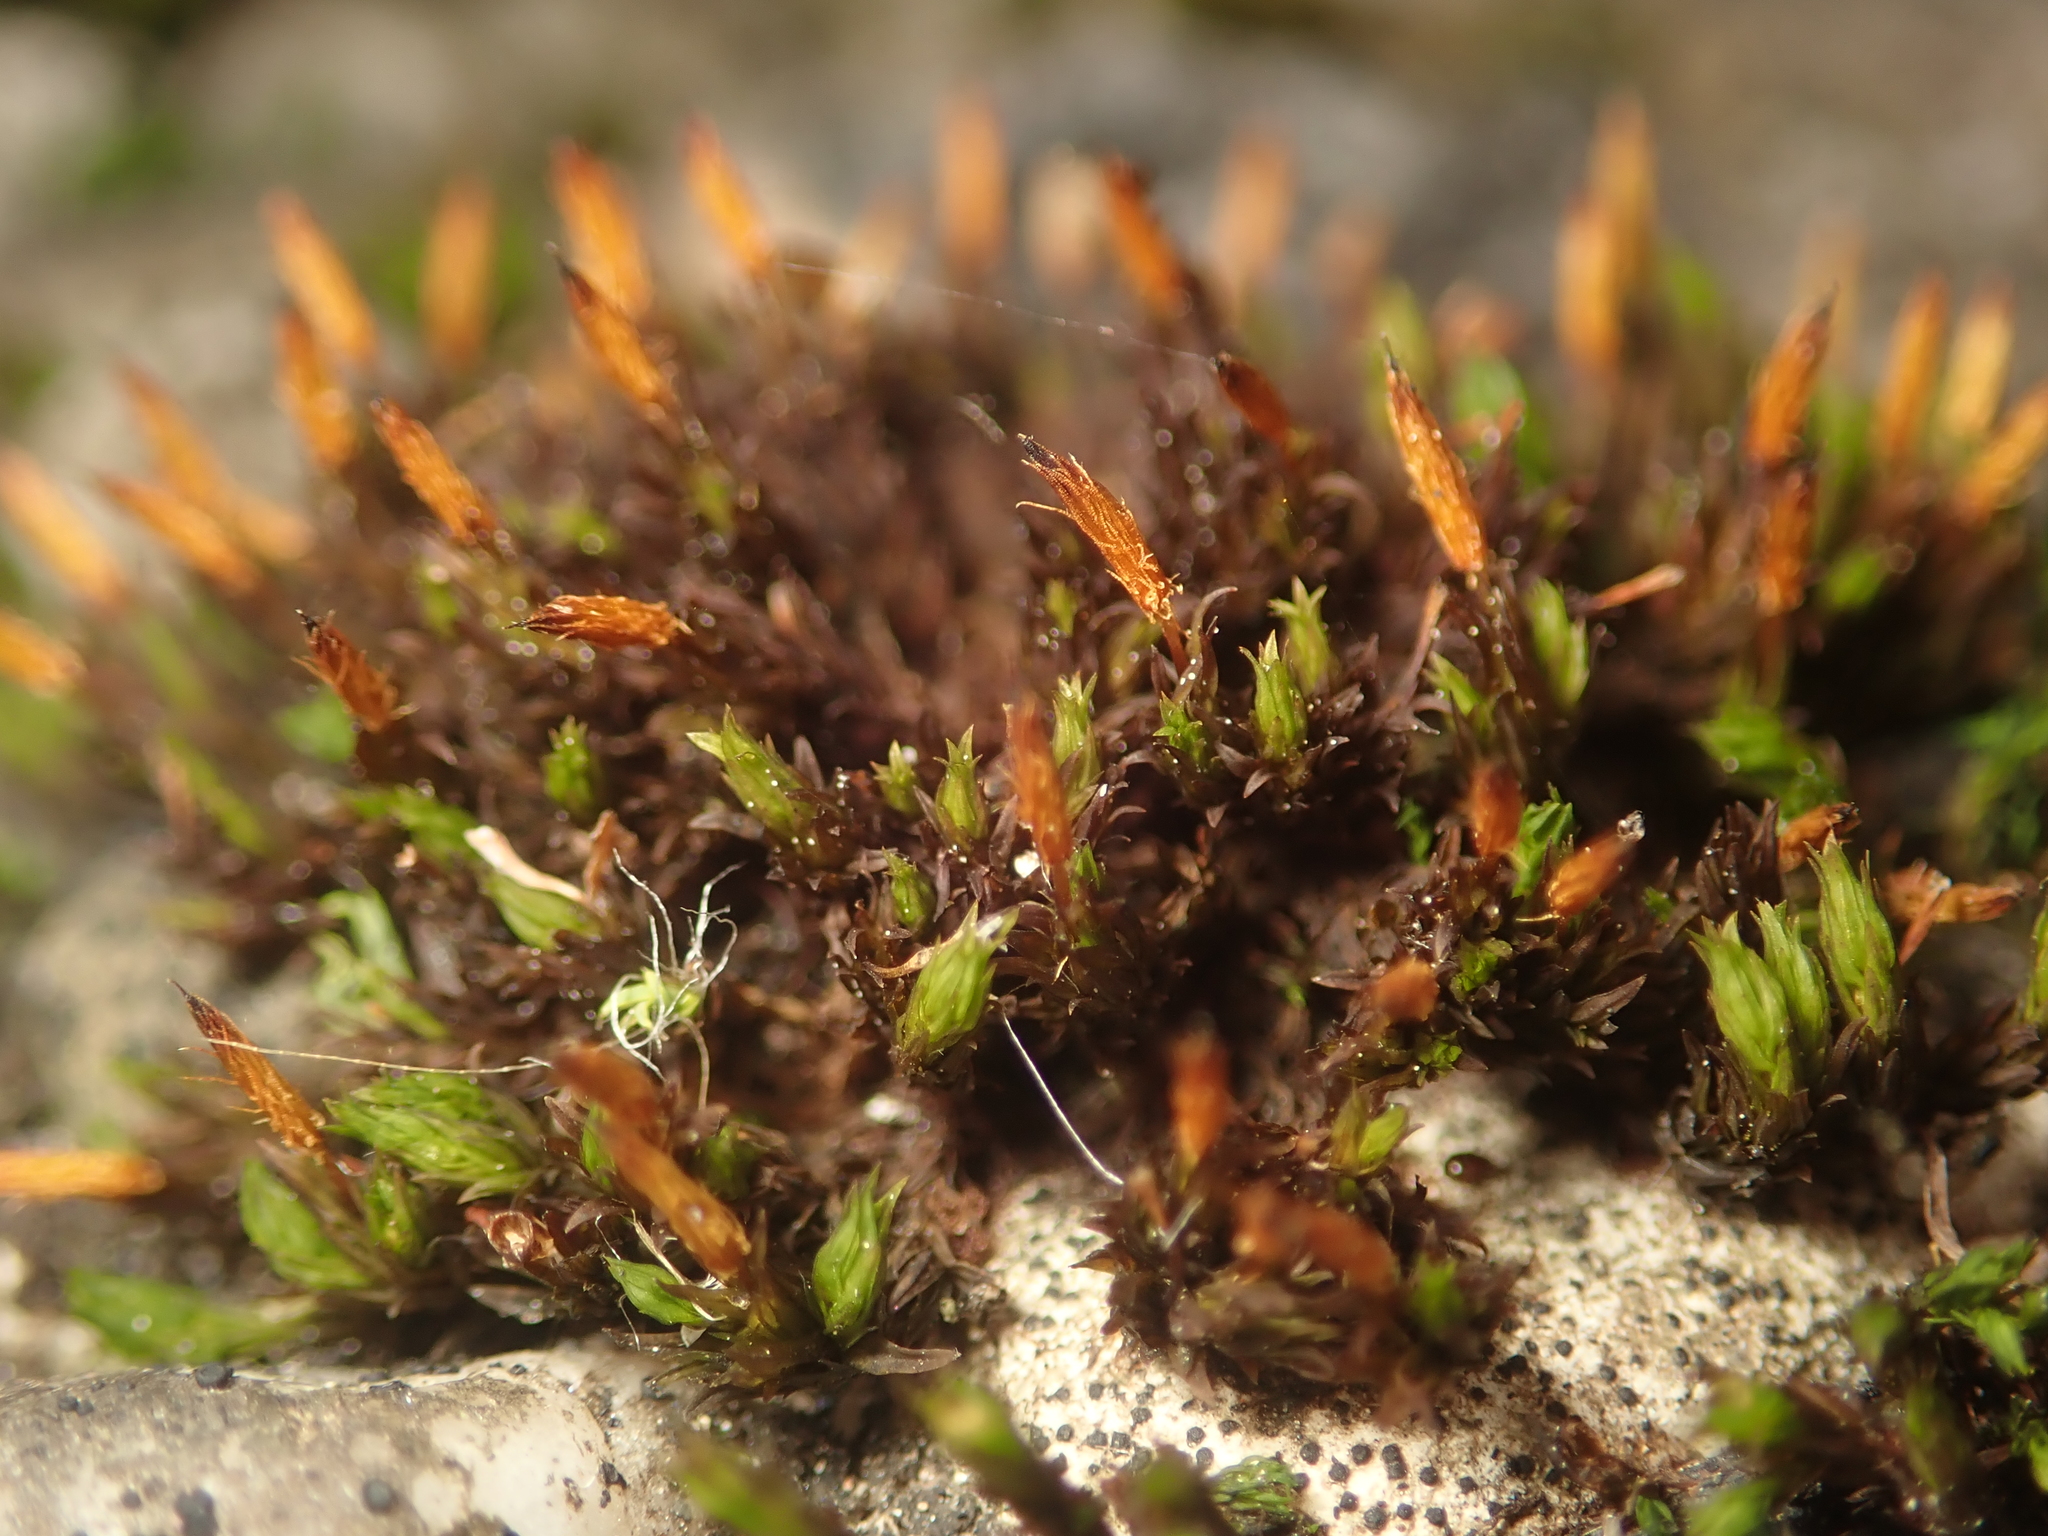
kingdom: Plantae
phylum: Bryophyta
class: Bryopsida
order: Orthotrichales
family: Orthotrichaceae
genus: Orthotrichum
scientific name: Orthotrichum anomalum
